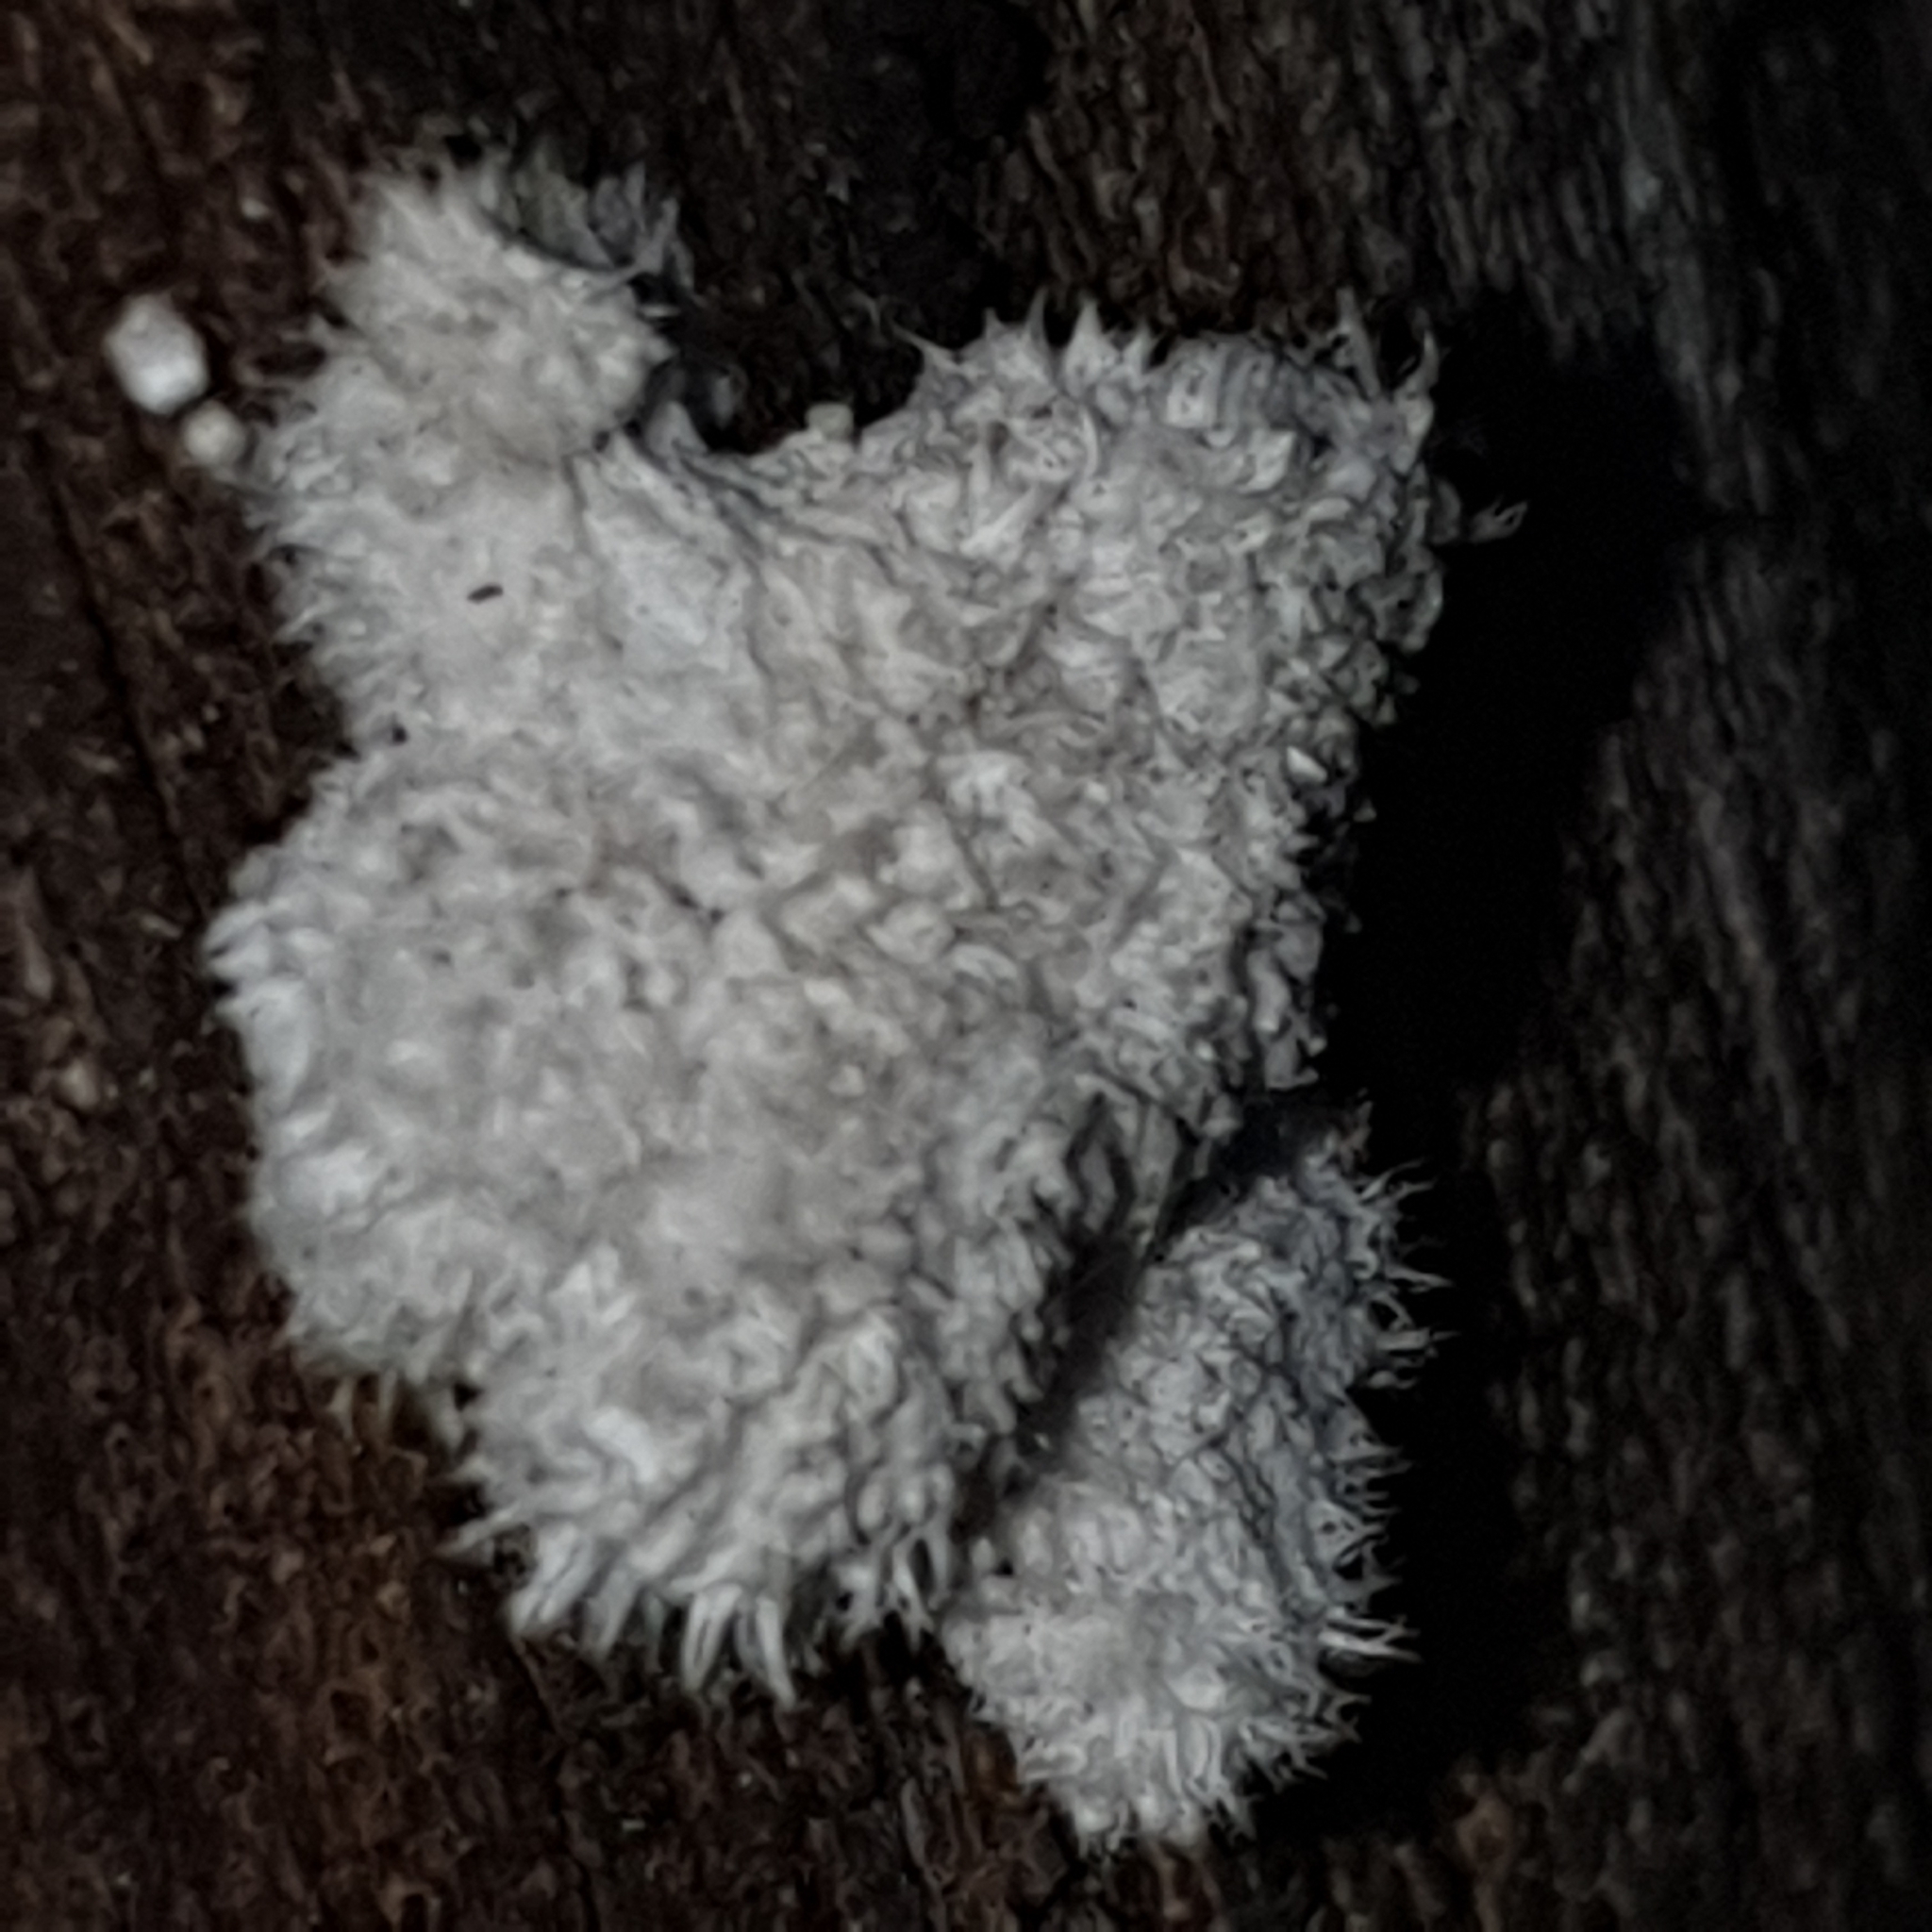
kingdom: Fungi
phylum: Basidiomycota
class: Agaricomycetes
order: Agaricales
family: Schizophyllaceae
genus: Schizophyllum
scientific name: Schizophyllum commune
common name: Common porecrust
